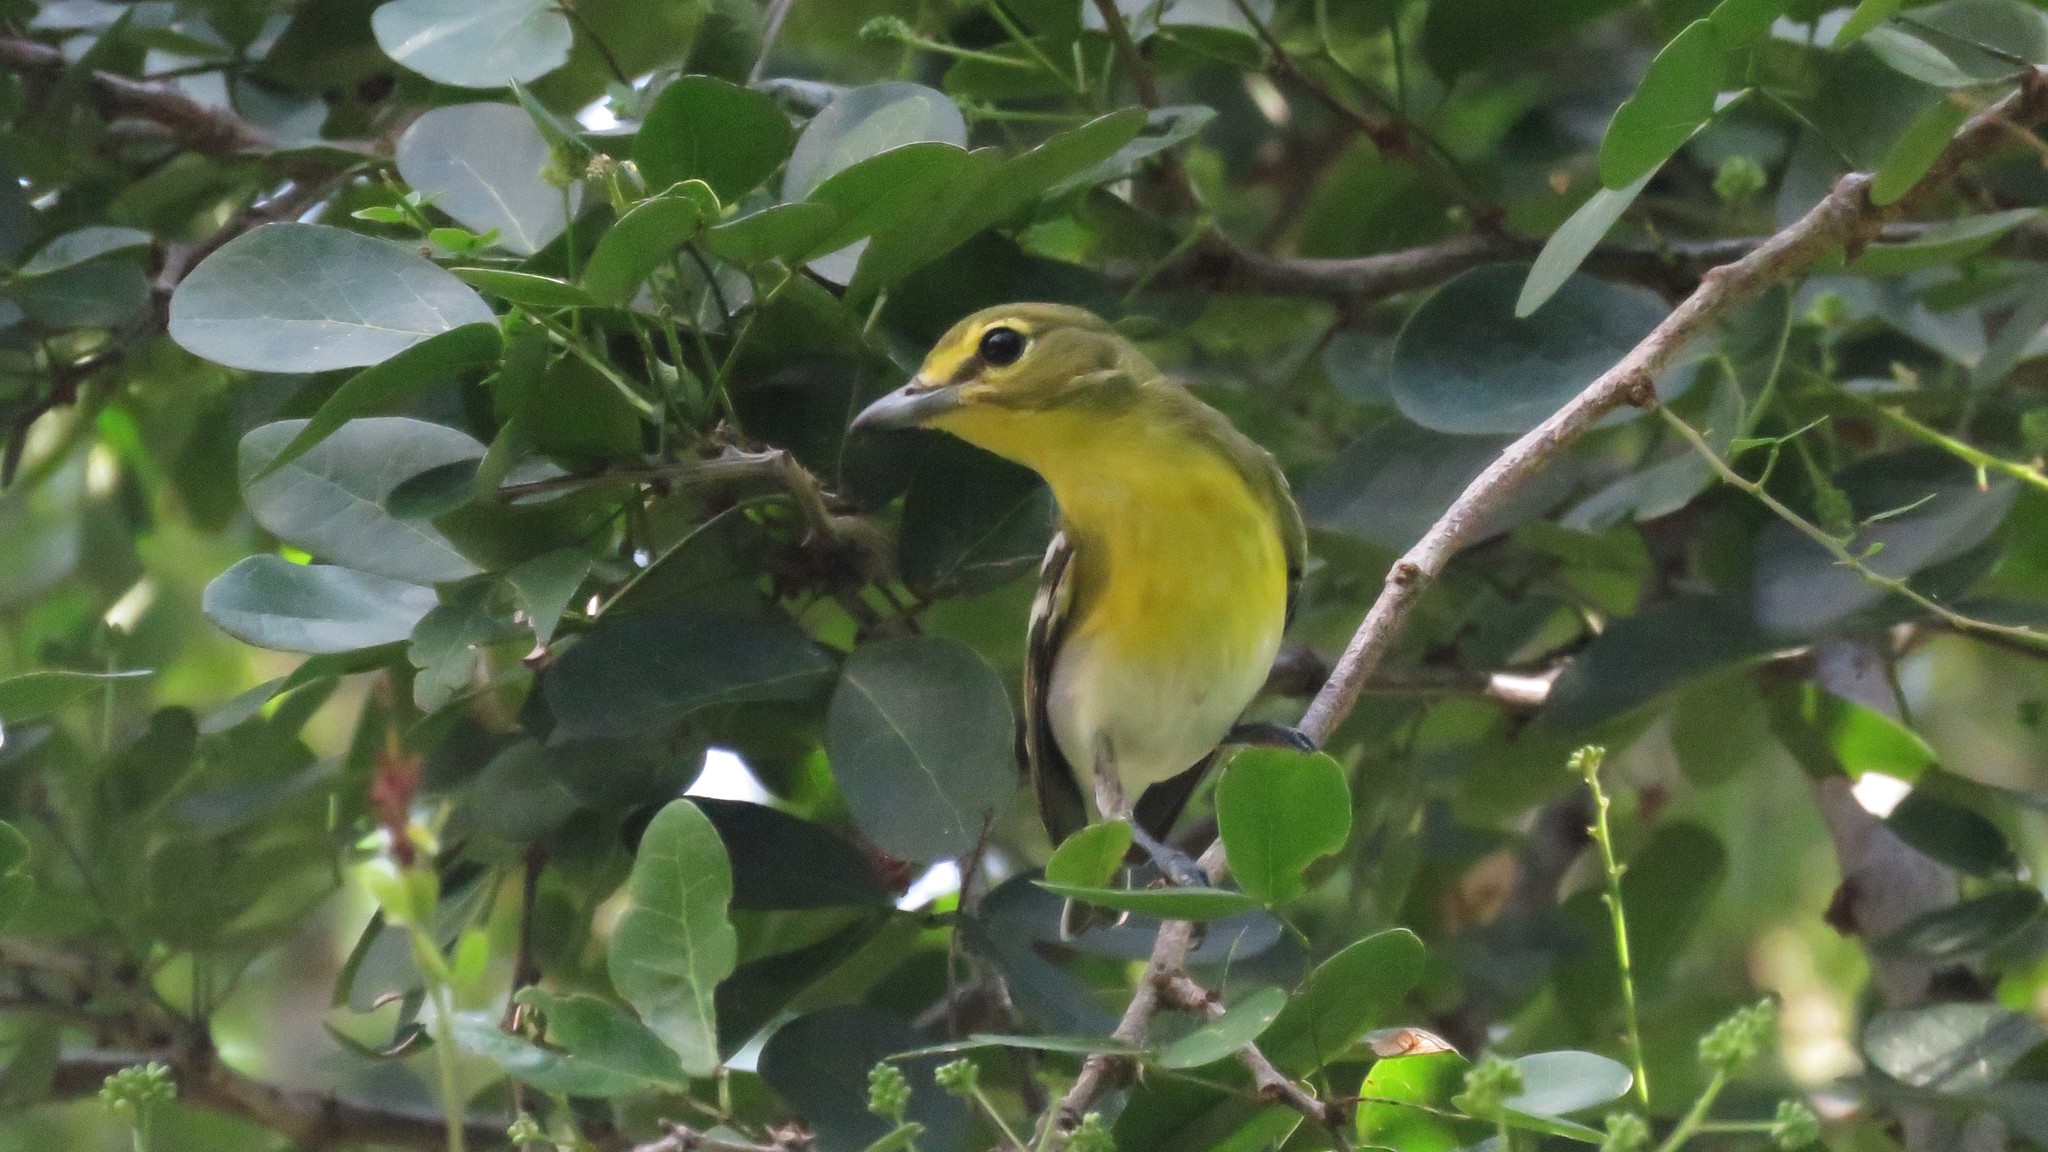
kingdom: Animalia
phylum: Chordata
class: Aves
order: Passeriformes
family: Vireonidae
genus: Vireo
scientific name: Vireo flavifrons
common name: Yellow-throated vireo
